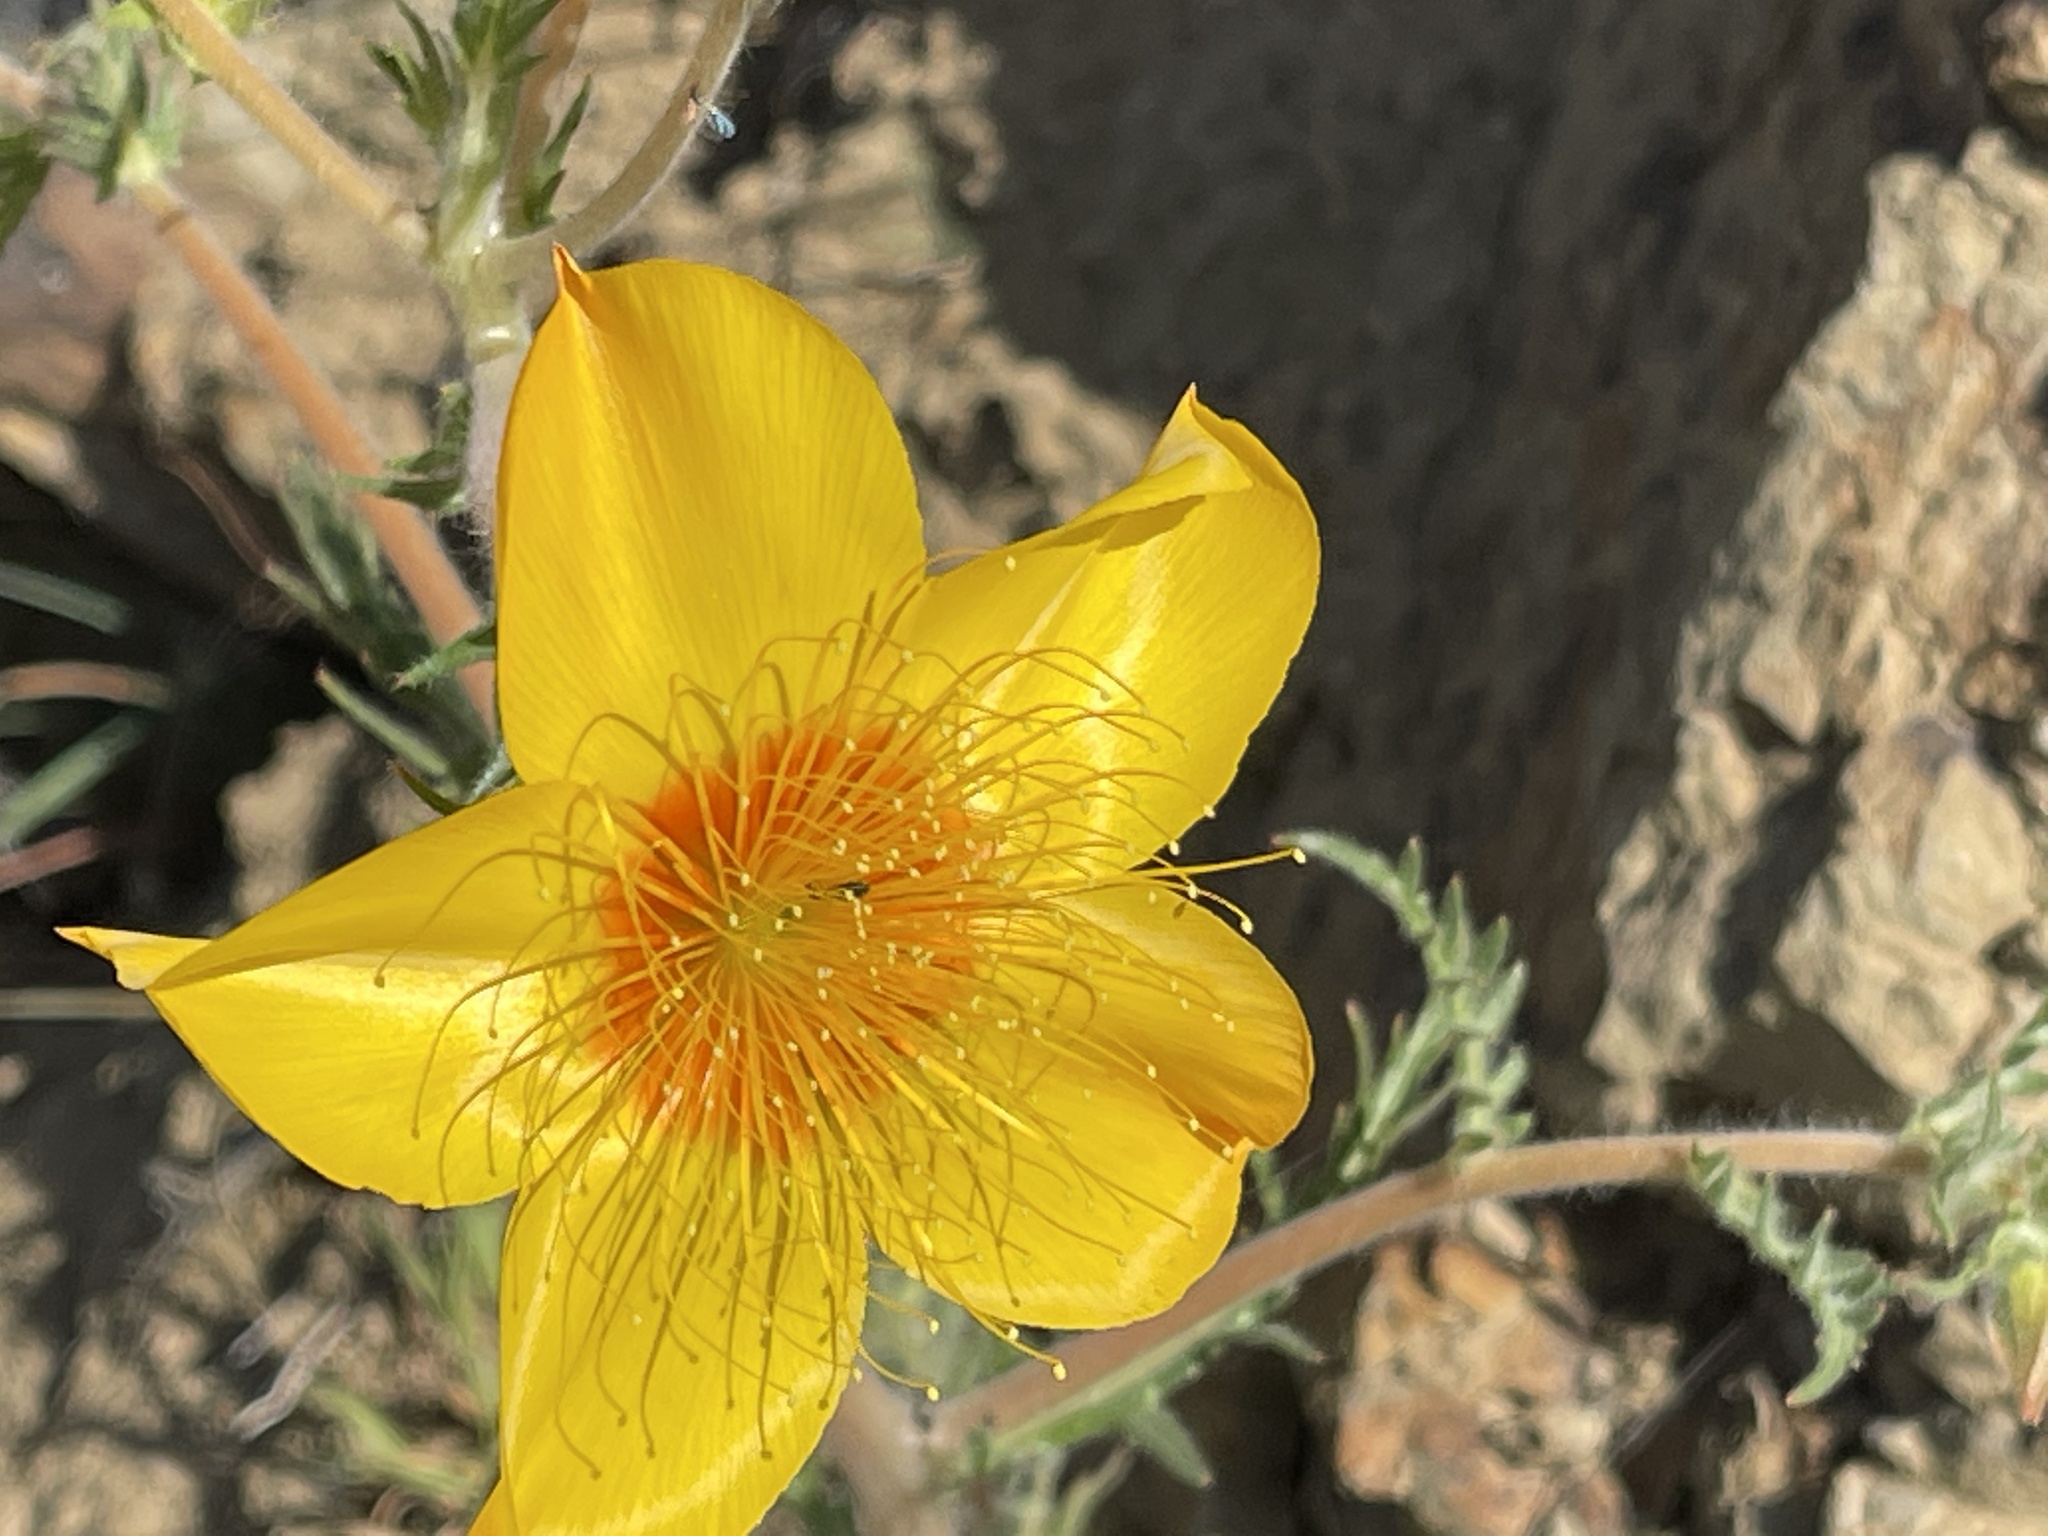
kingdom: Plantae
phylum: Tracheophyta
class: Magnoliopsida
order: Cornales
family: Loasaceae
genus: Mentzelia
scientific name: Mentzelia lindleyi
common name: Golden bartonia
